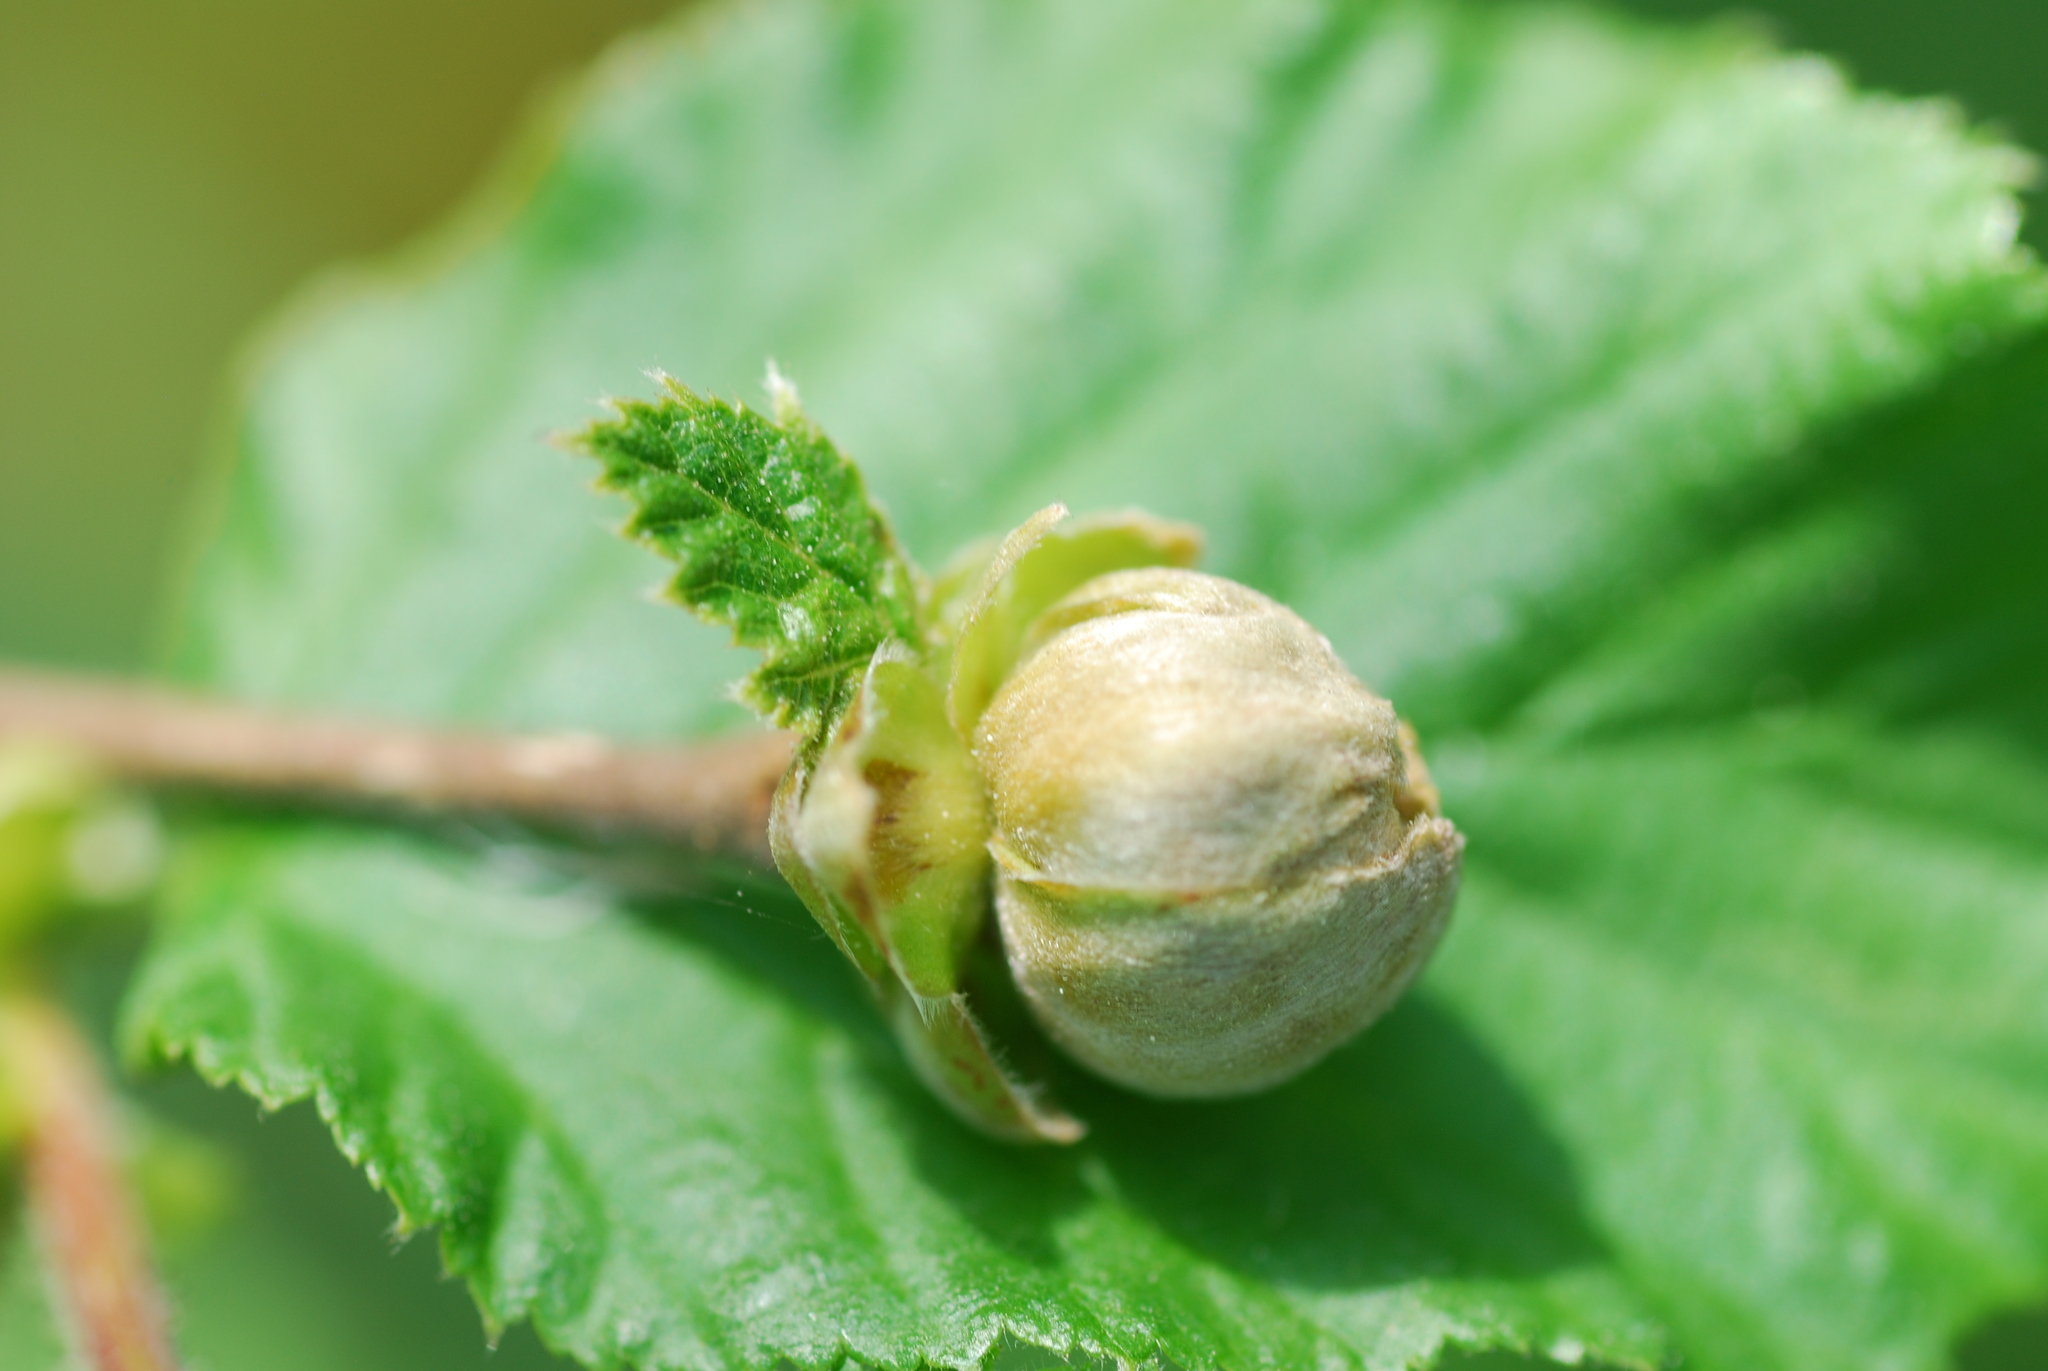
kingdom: Animalia
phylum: Arthropoda
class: Arachnida
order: Trombidiformes
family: Phytoptidae
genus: Phytoptus
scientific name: Phytoptus avellanae
